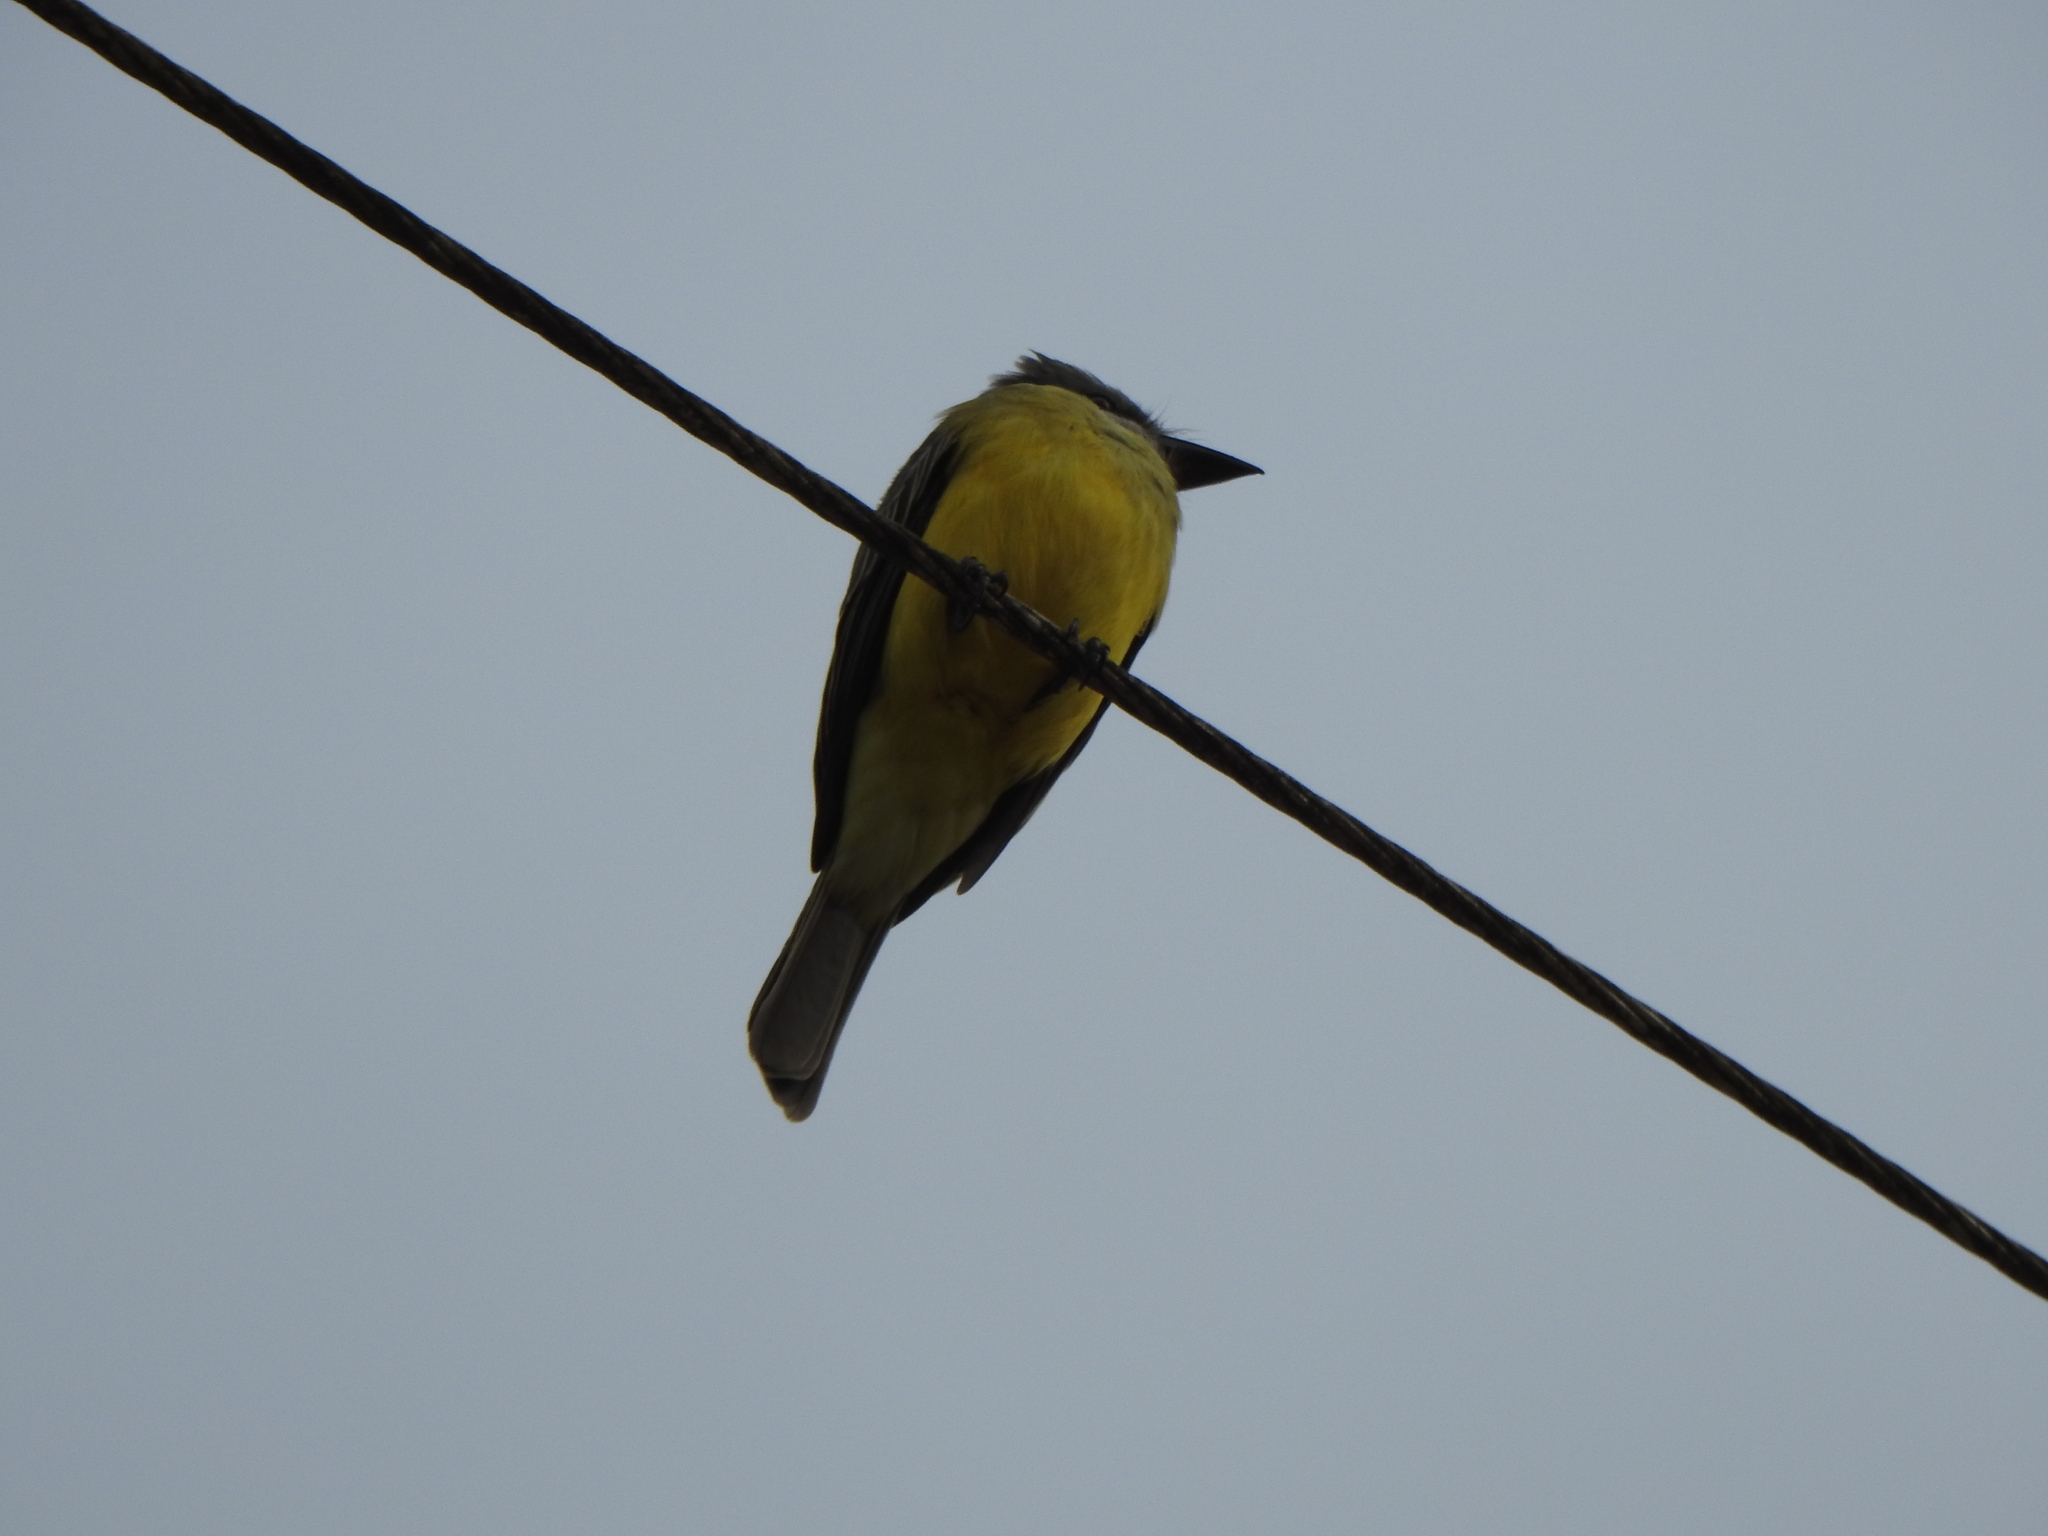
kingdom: Animalia
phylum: Chordata
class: Aves
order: Passeriformes
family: Tyrannidae
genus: Tyrannus
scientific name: Tyrannus melancholicus
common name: Tropical kingbird
